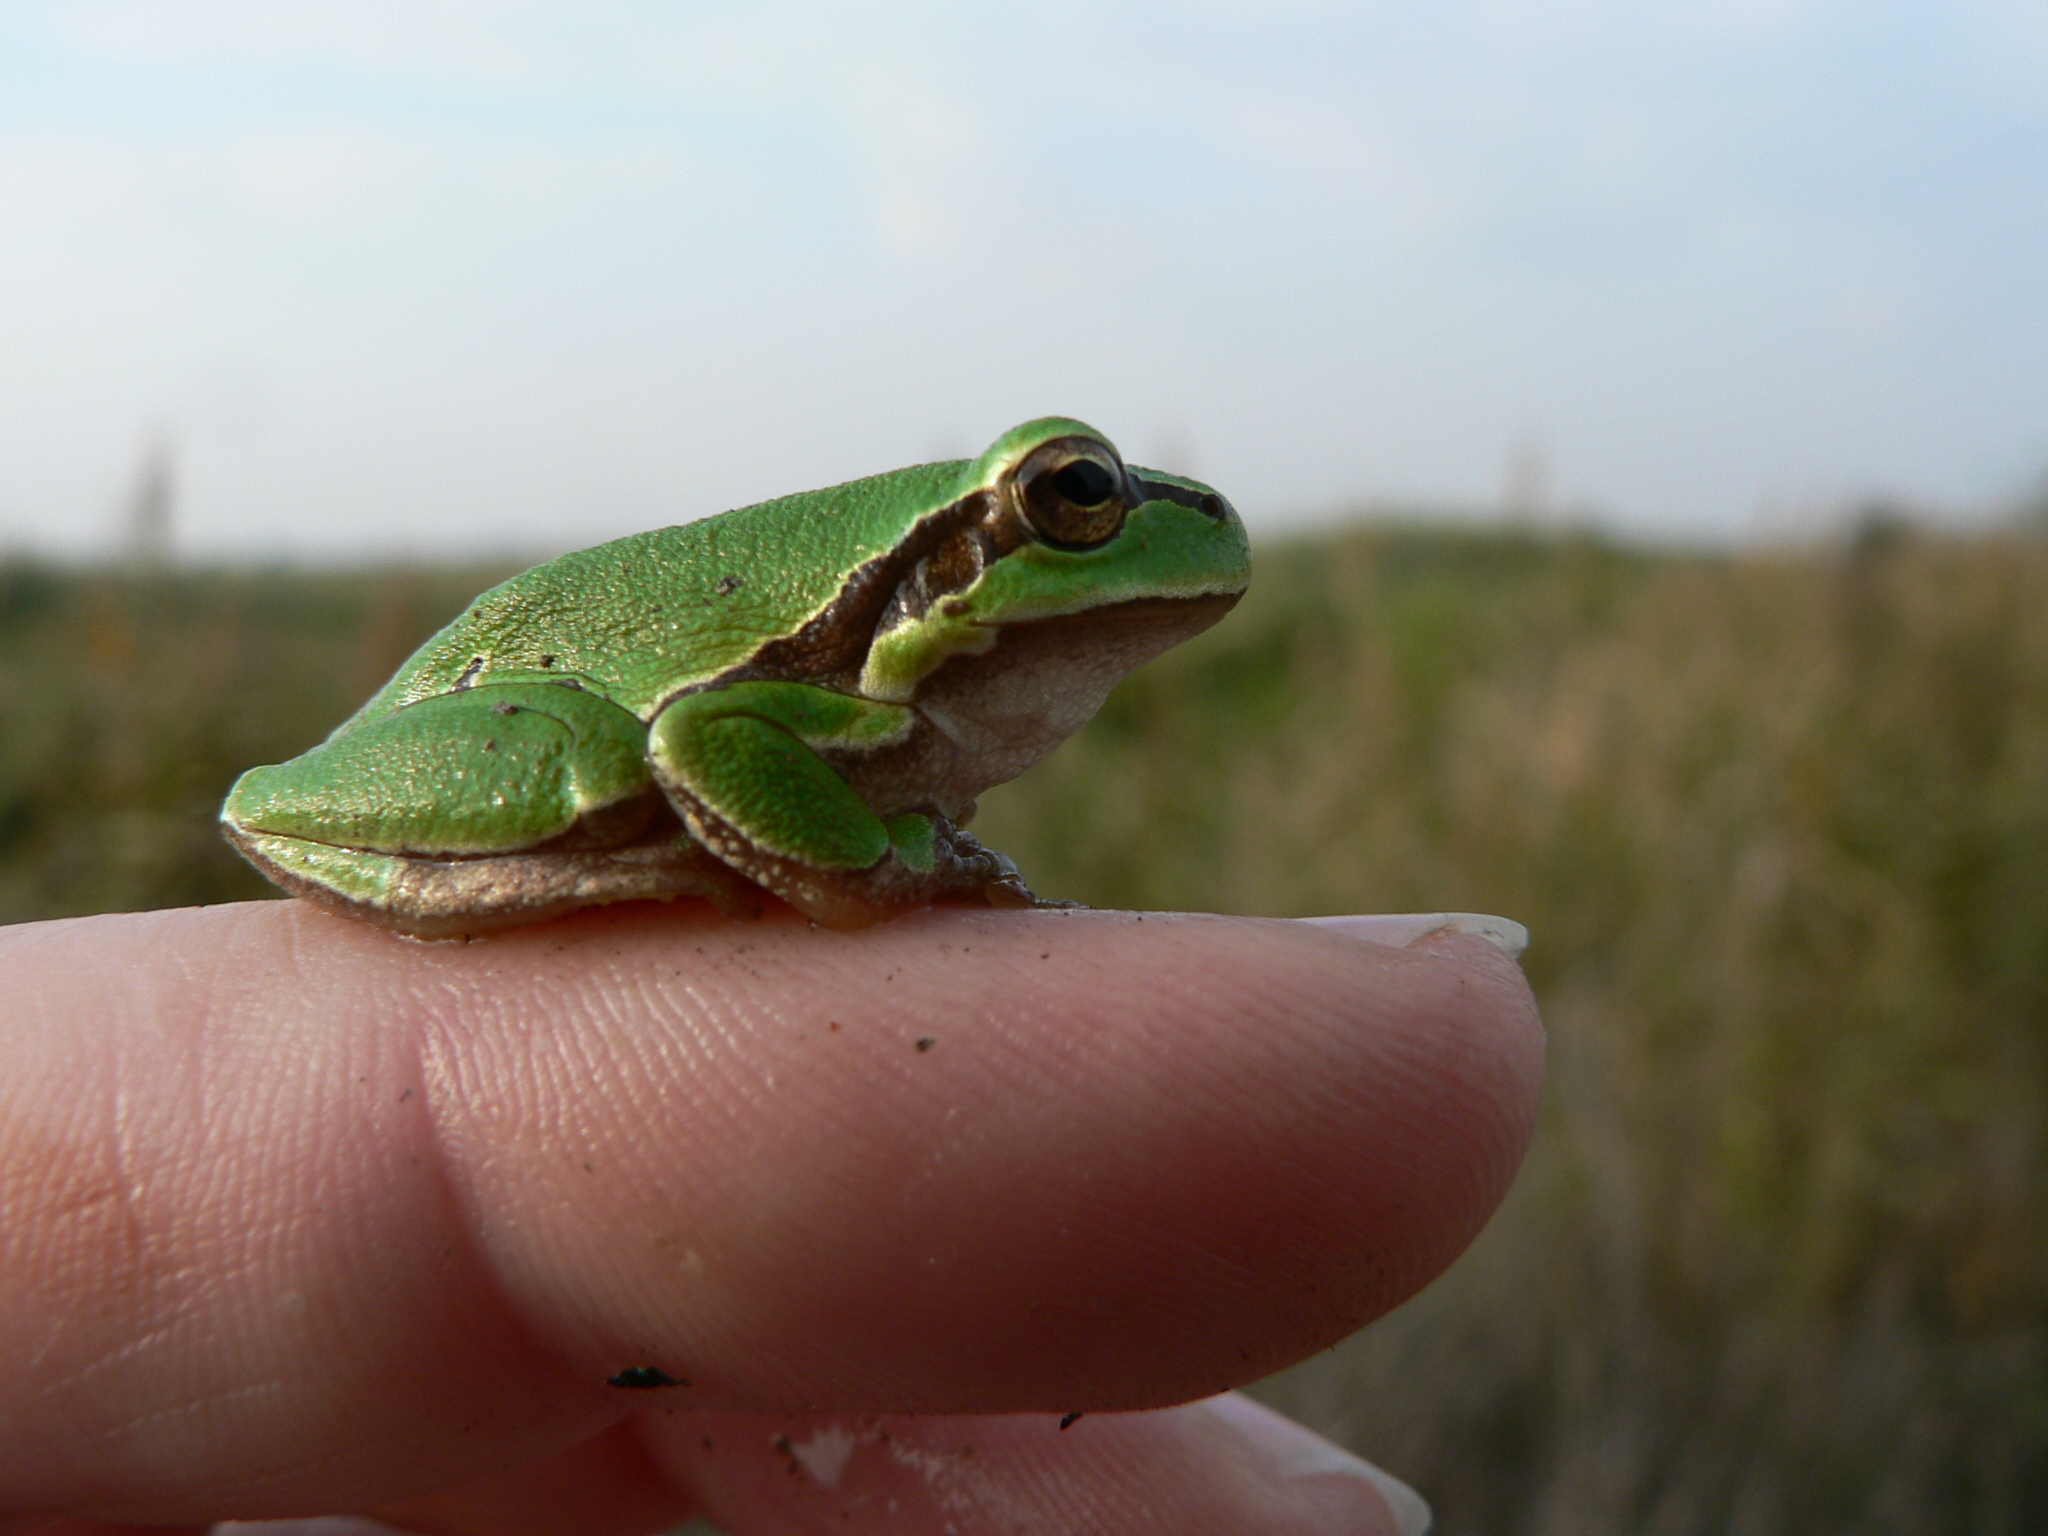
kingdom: Animalia
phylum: Chordata
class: Amphibia
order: Anura
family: Hylidae
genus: Hyla
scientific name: Hyla arborea
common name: Common tree frog
